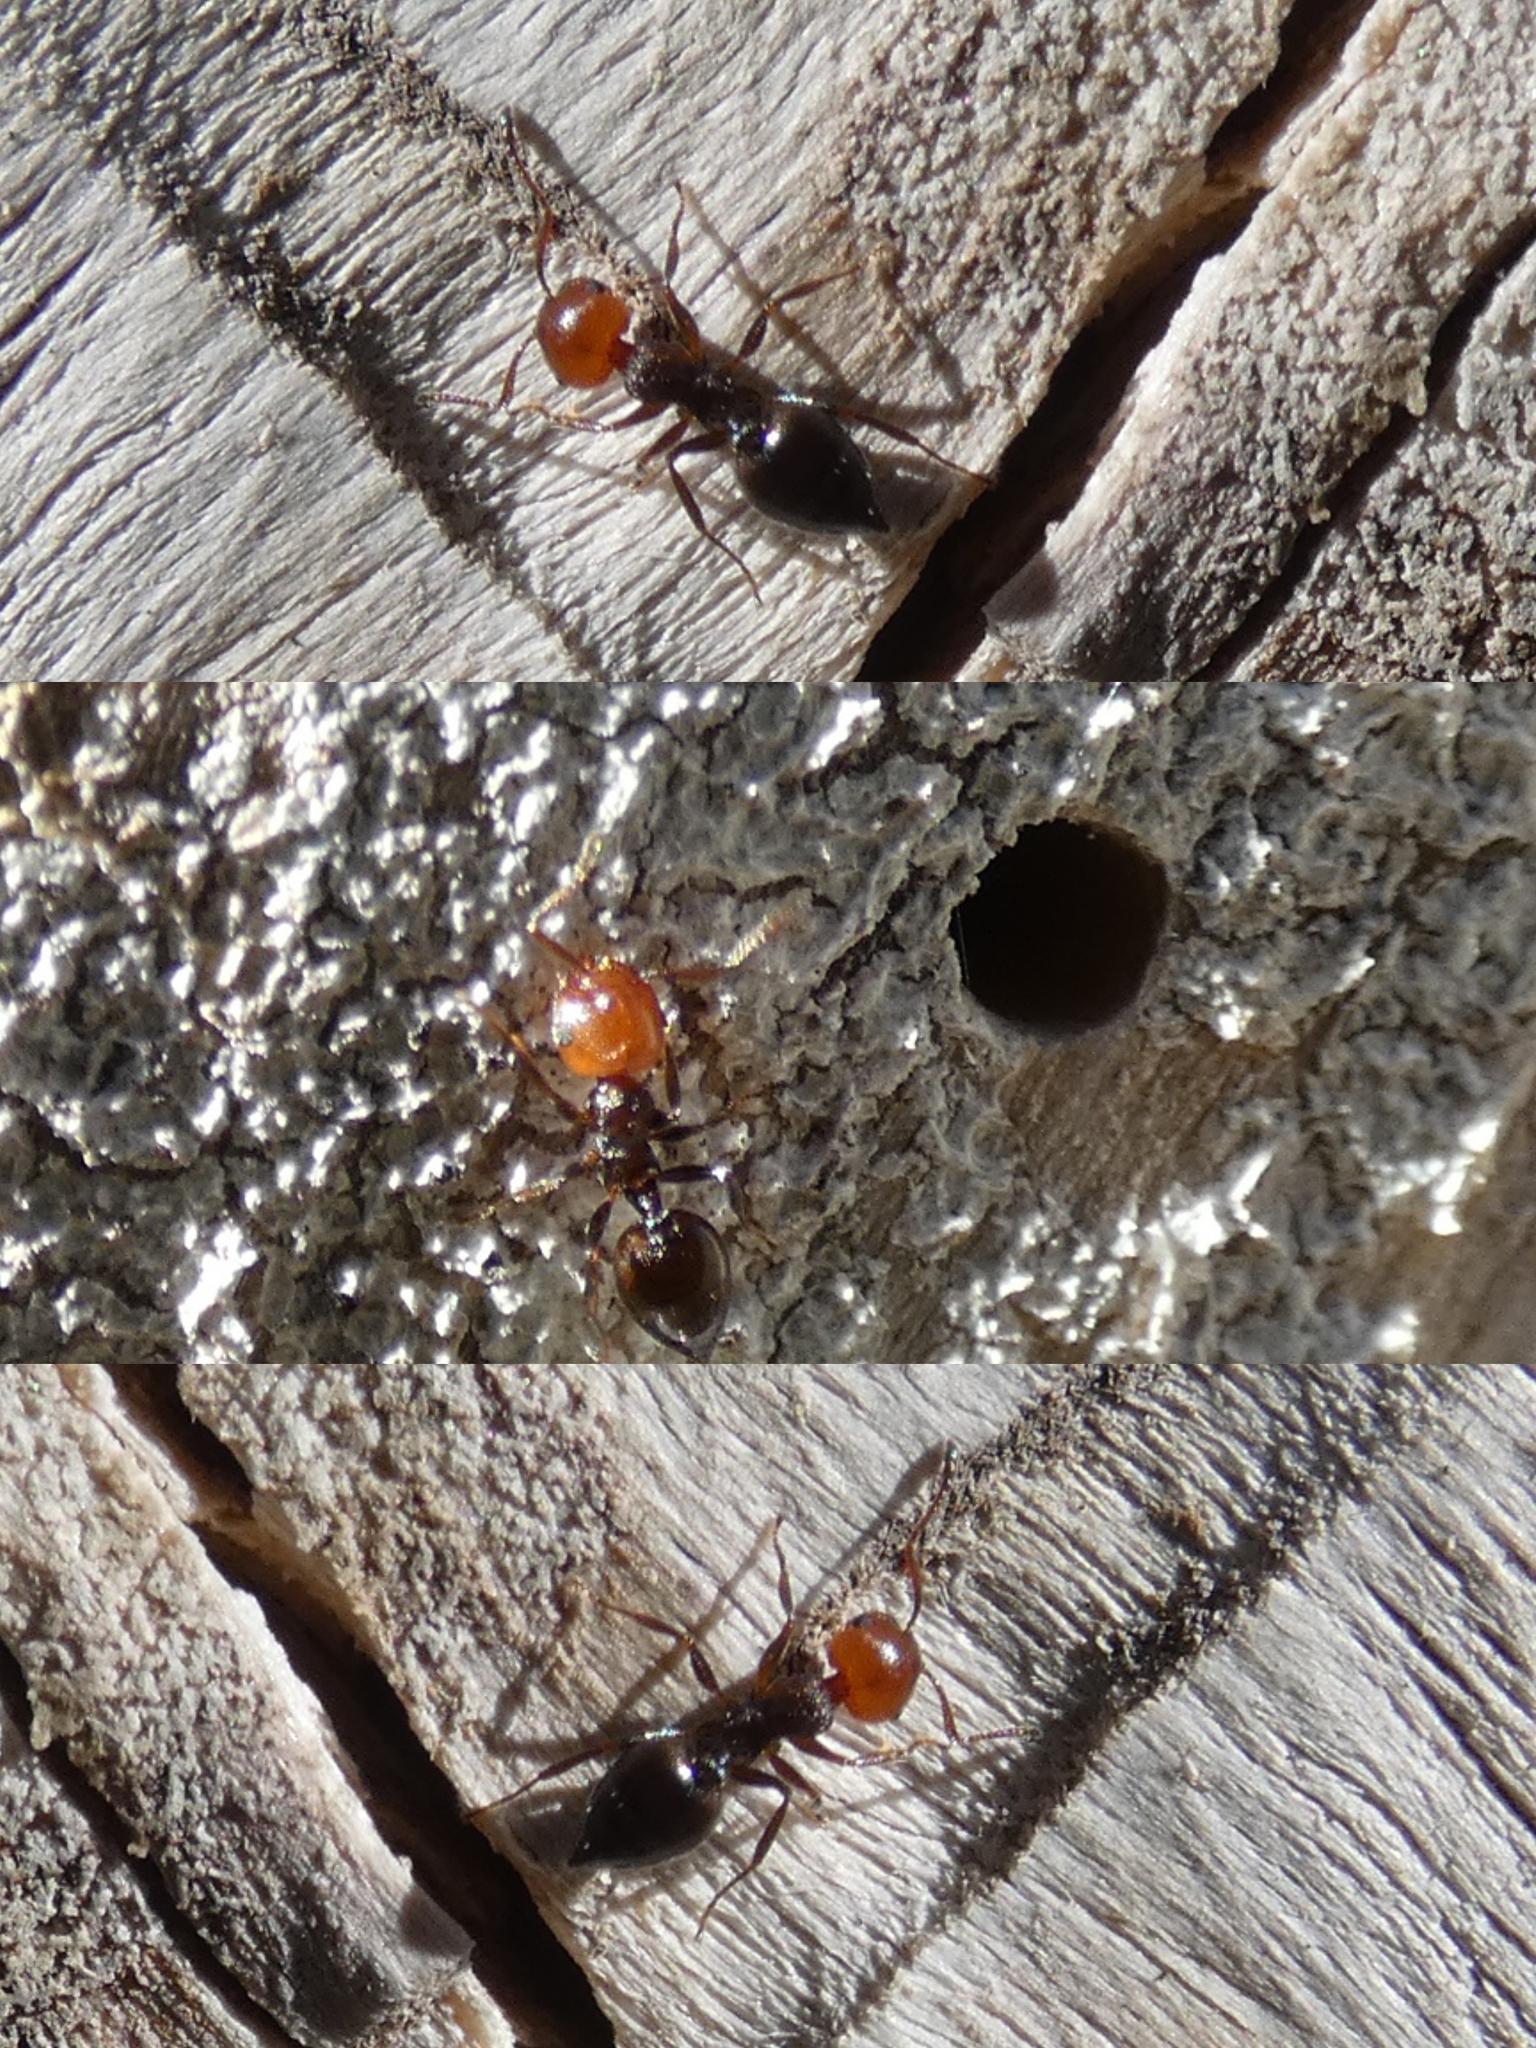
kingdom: Animalia
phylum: Arthropoda
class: Insecta
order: Hymenoptera
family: Formicidae
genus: Crematogaster
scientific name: Crematogaster scutellaris
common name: Fourmi du liège
